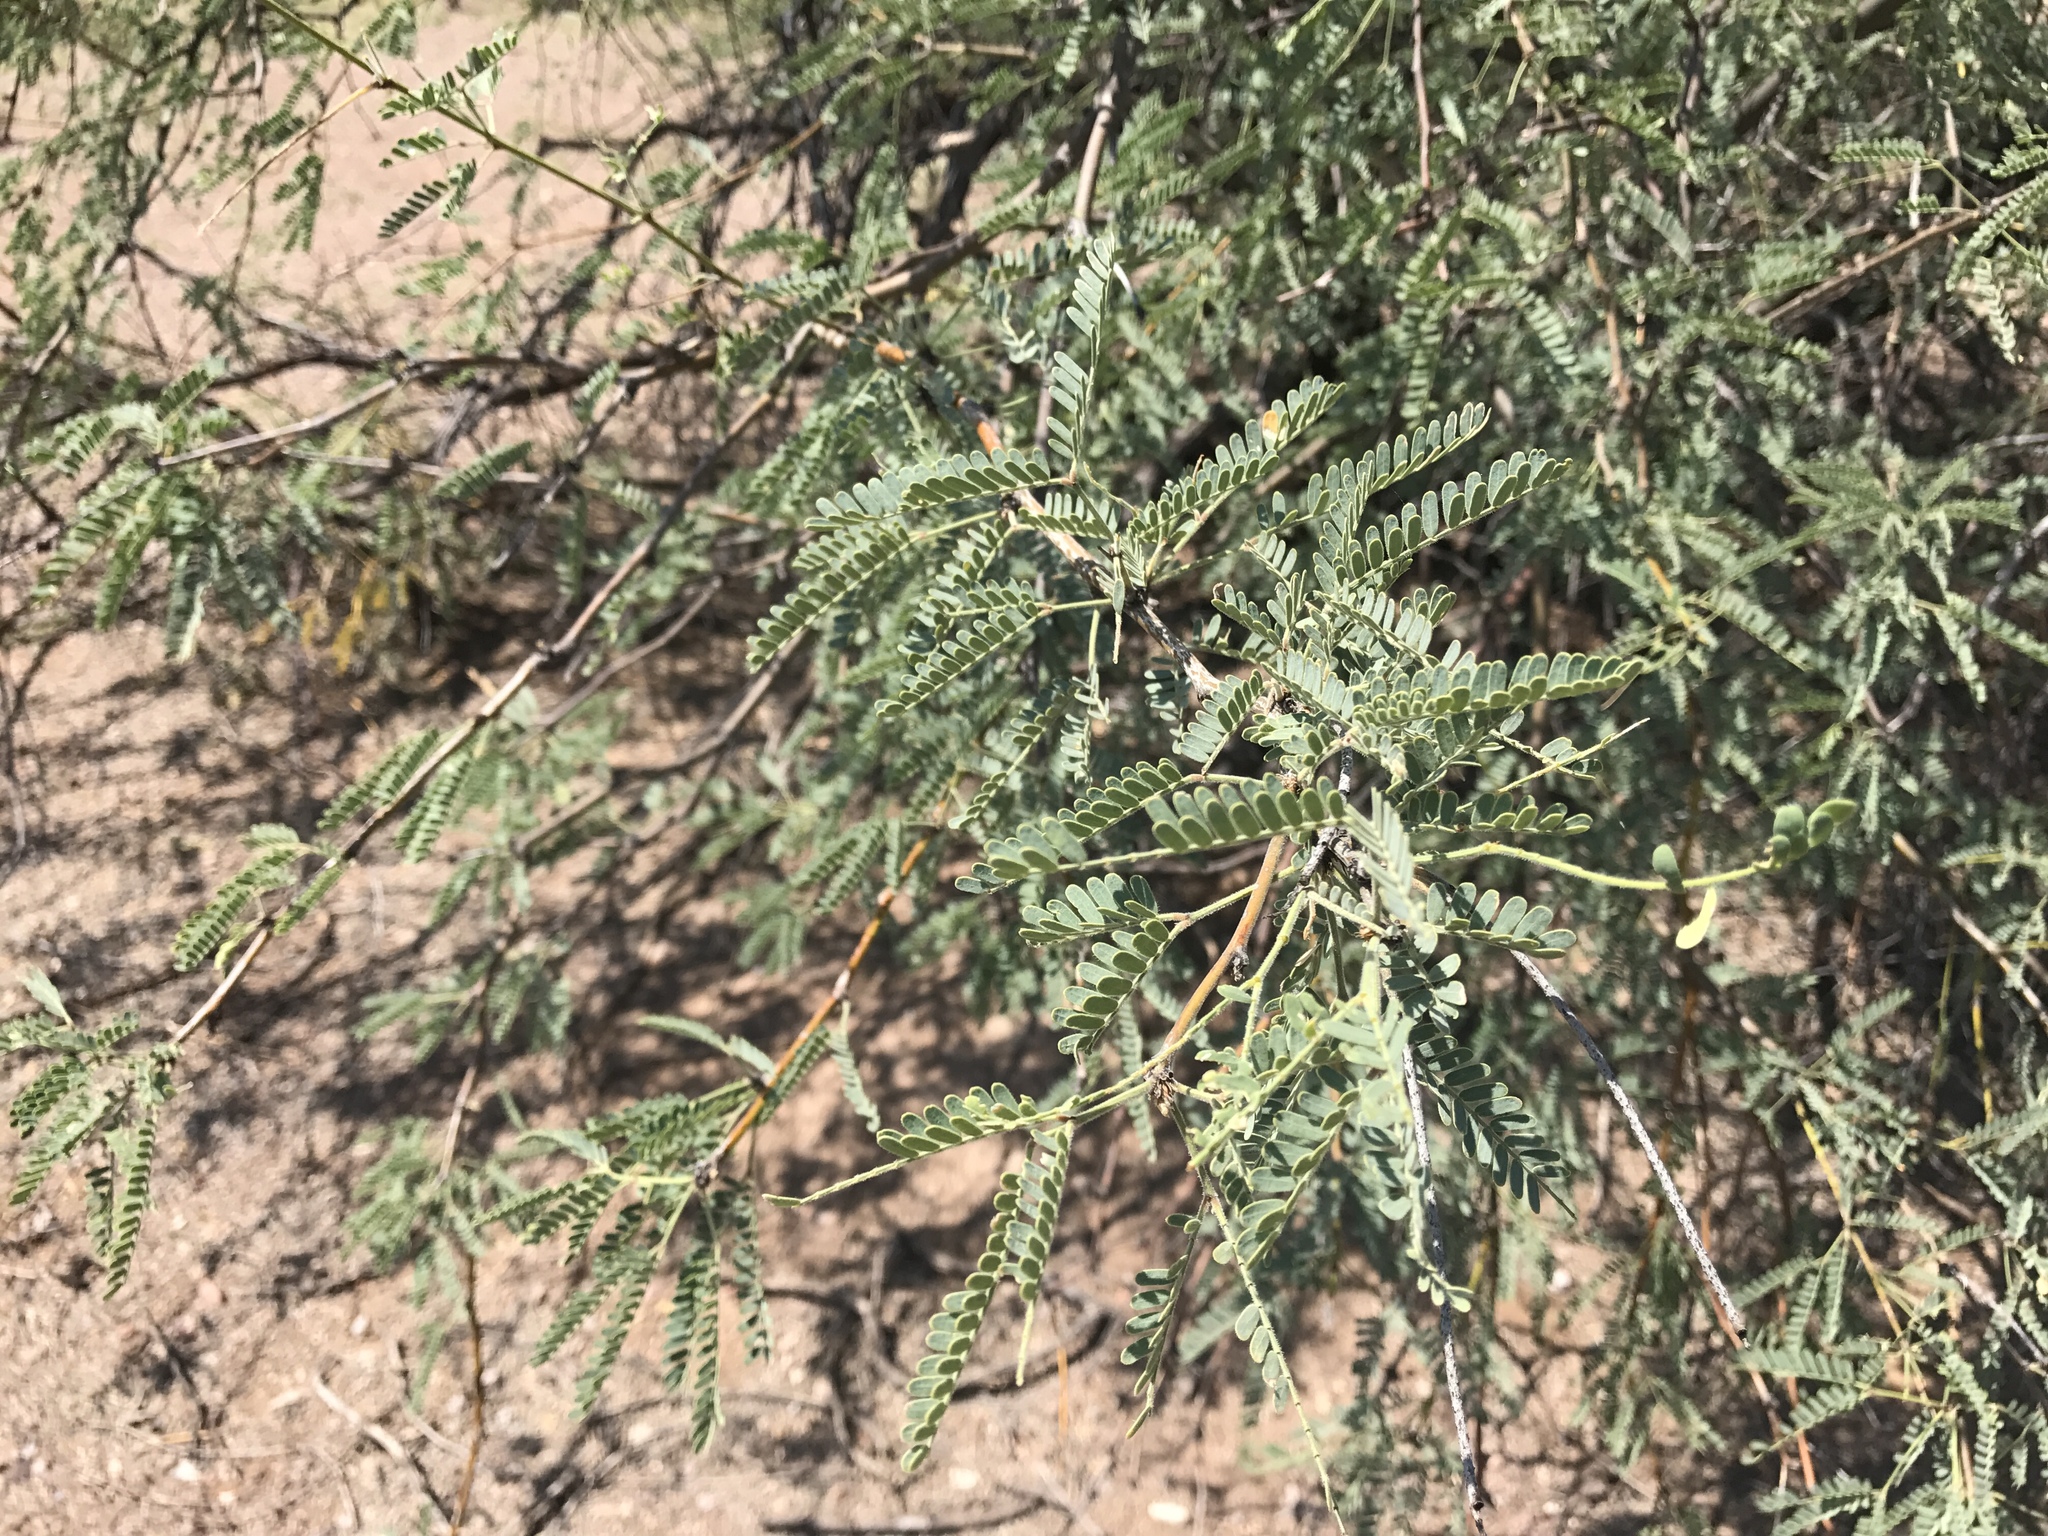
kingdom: Plantae
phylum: Tracheophyta
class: Magnoliopsida
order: Fabales
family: Fabaceae
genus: Prosopis
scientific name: Prosopis velutina
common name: Velvet mesquite
